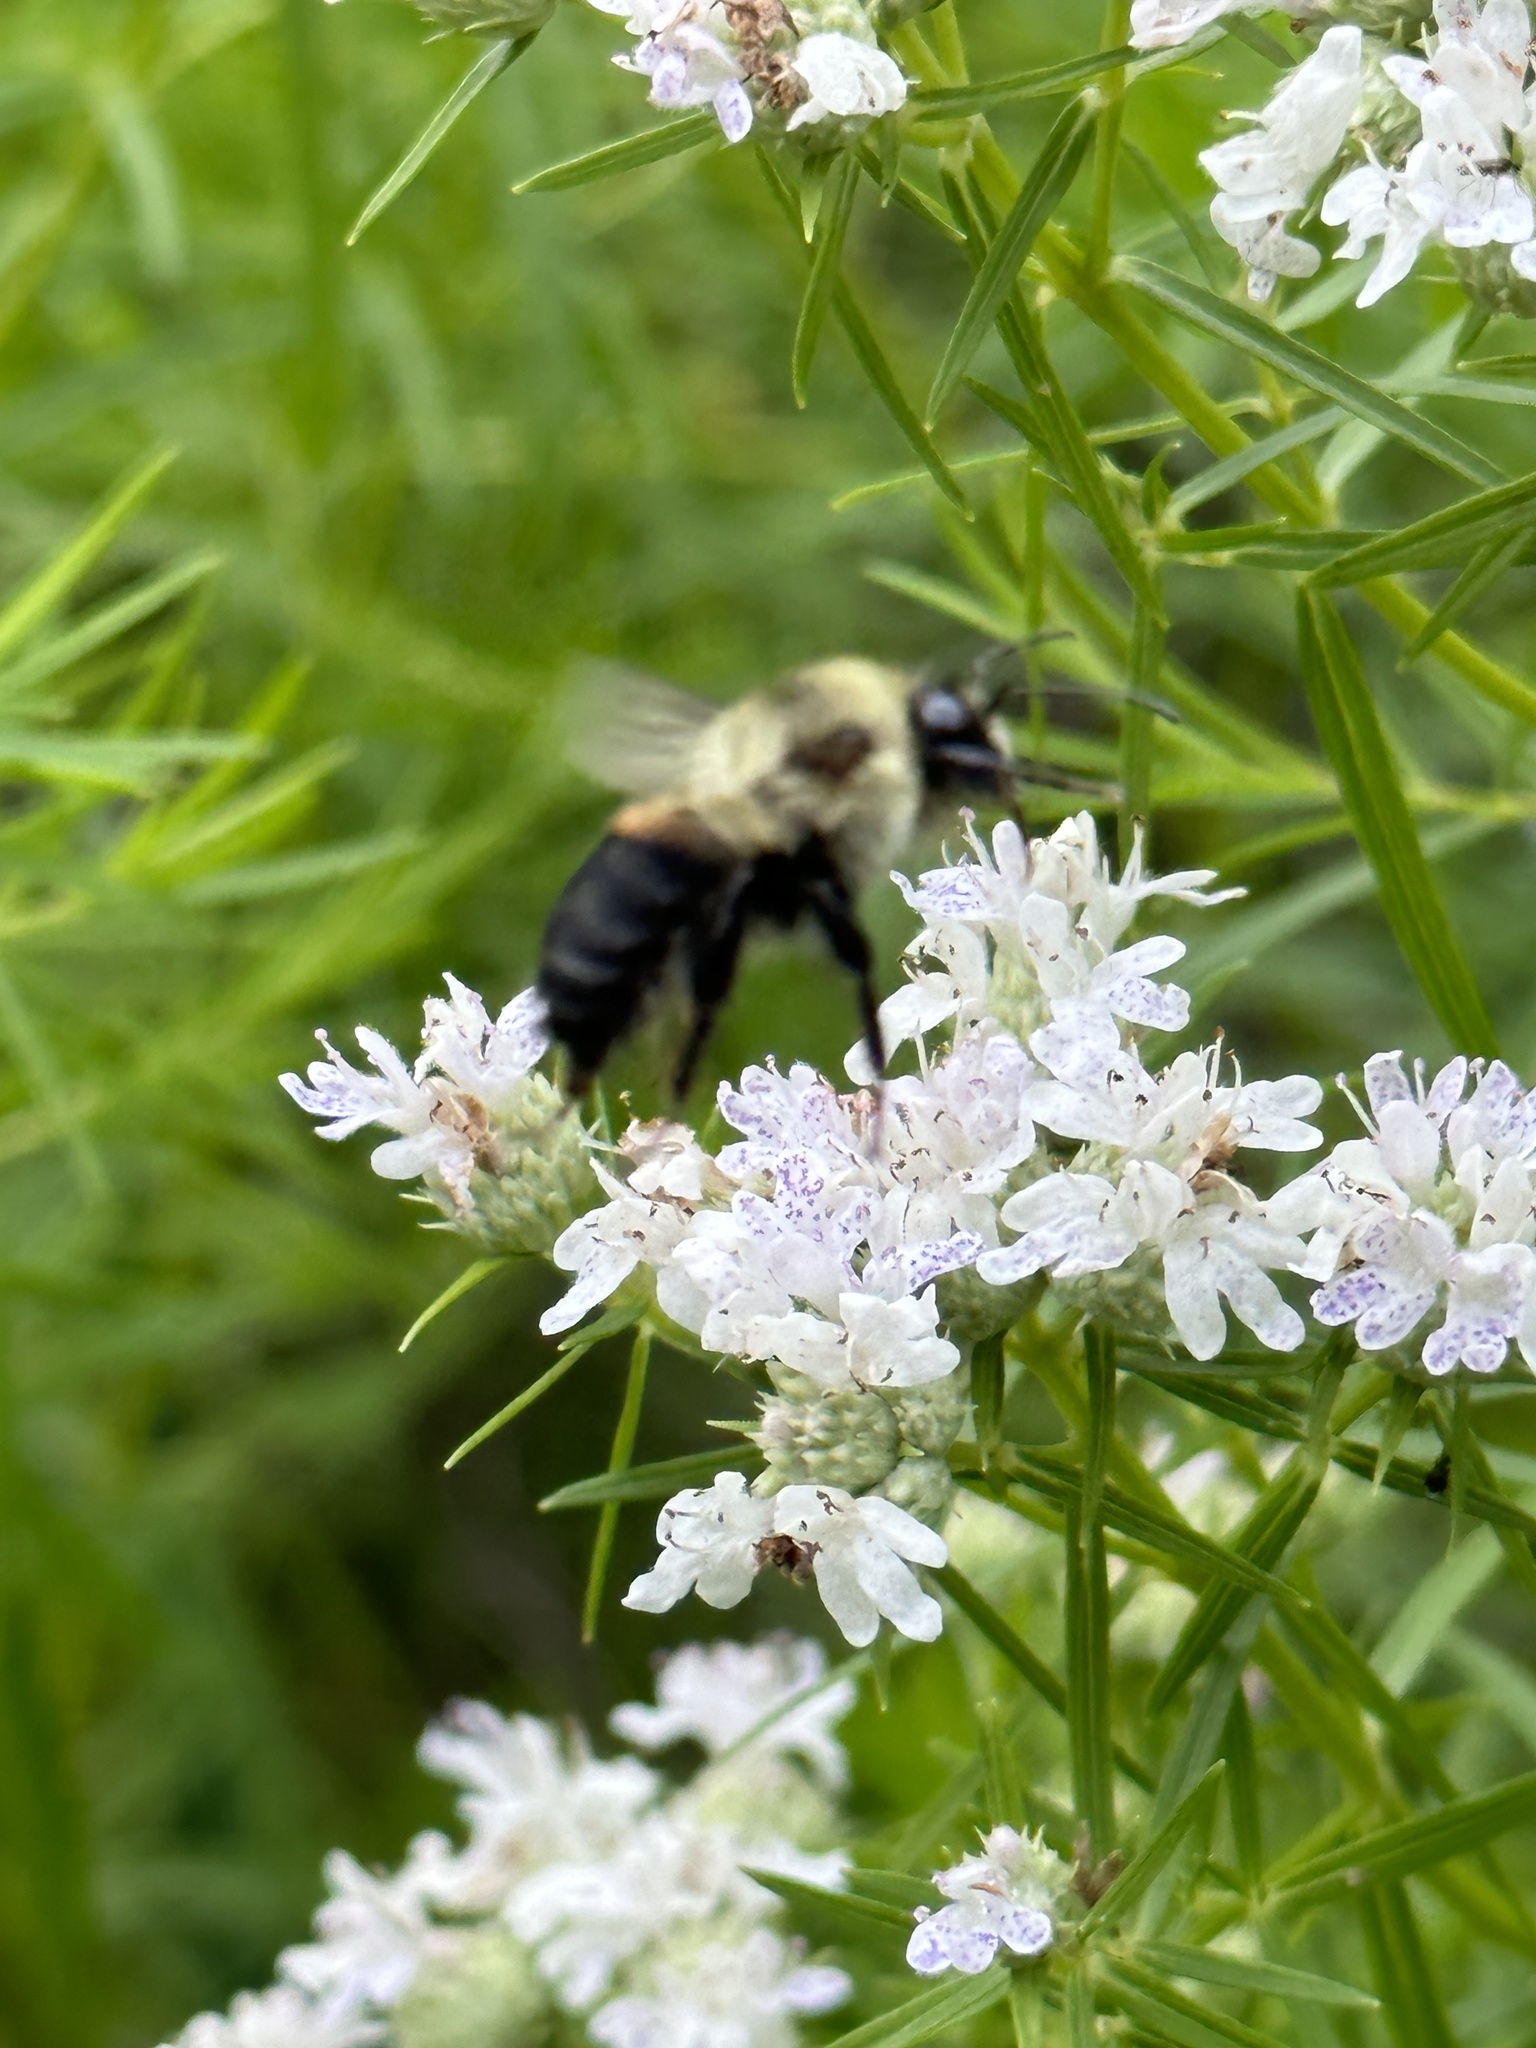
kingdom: Animalia
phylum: Arthropoda
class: Insecta
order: Hymenoptera
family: Apidae
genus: Bombus
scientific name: Bombus griseocollis
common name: Brown-belted bumble bee
